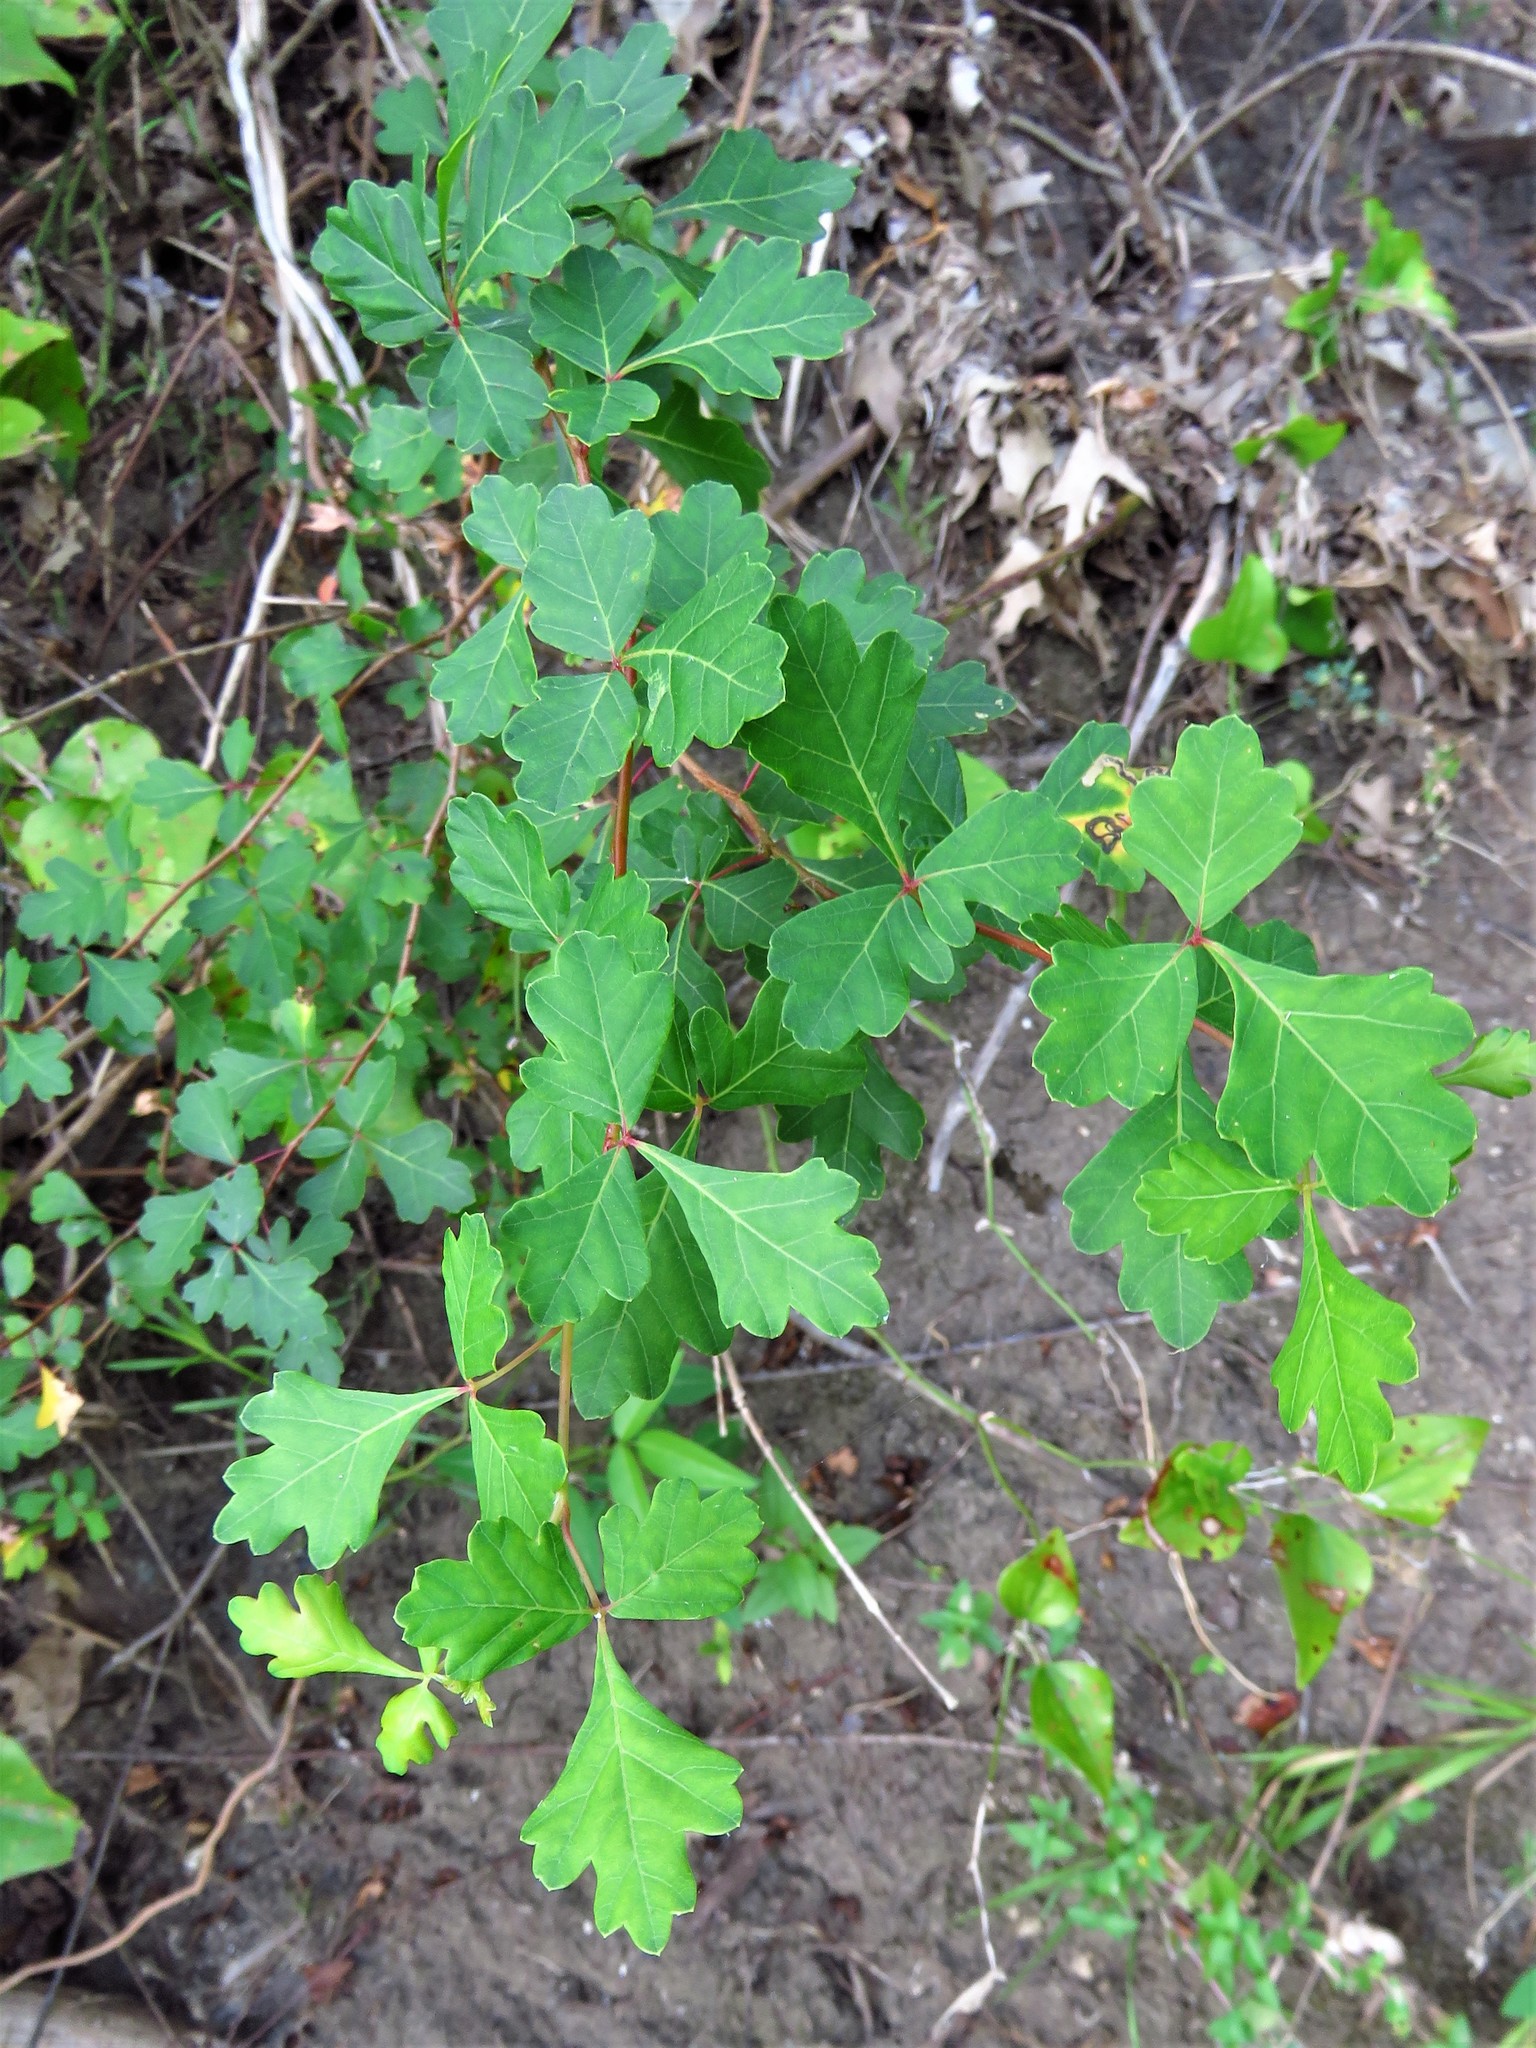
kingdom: Plantae
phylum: Tracheophyta
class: Magnoliopsida
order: Sapindales
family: Anacardiaceae
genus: Rhus
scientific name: Rhus aromatica
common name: Aromatic sumac
